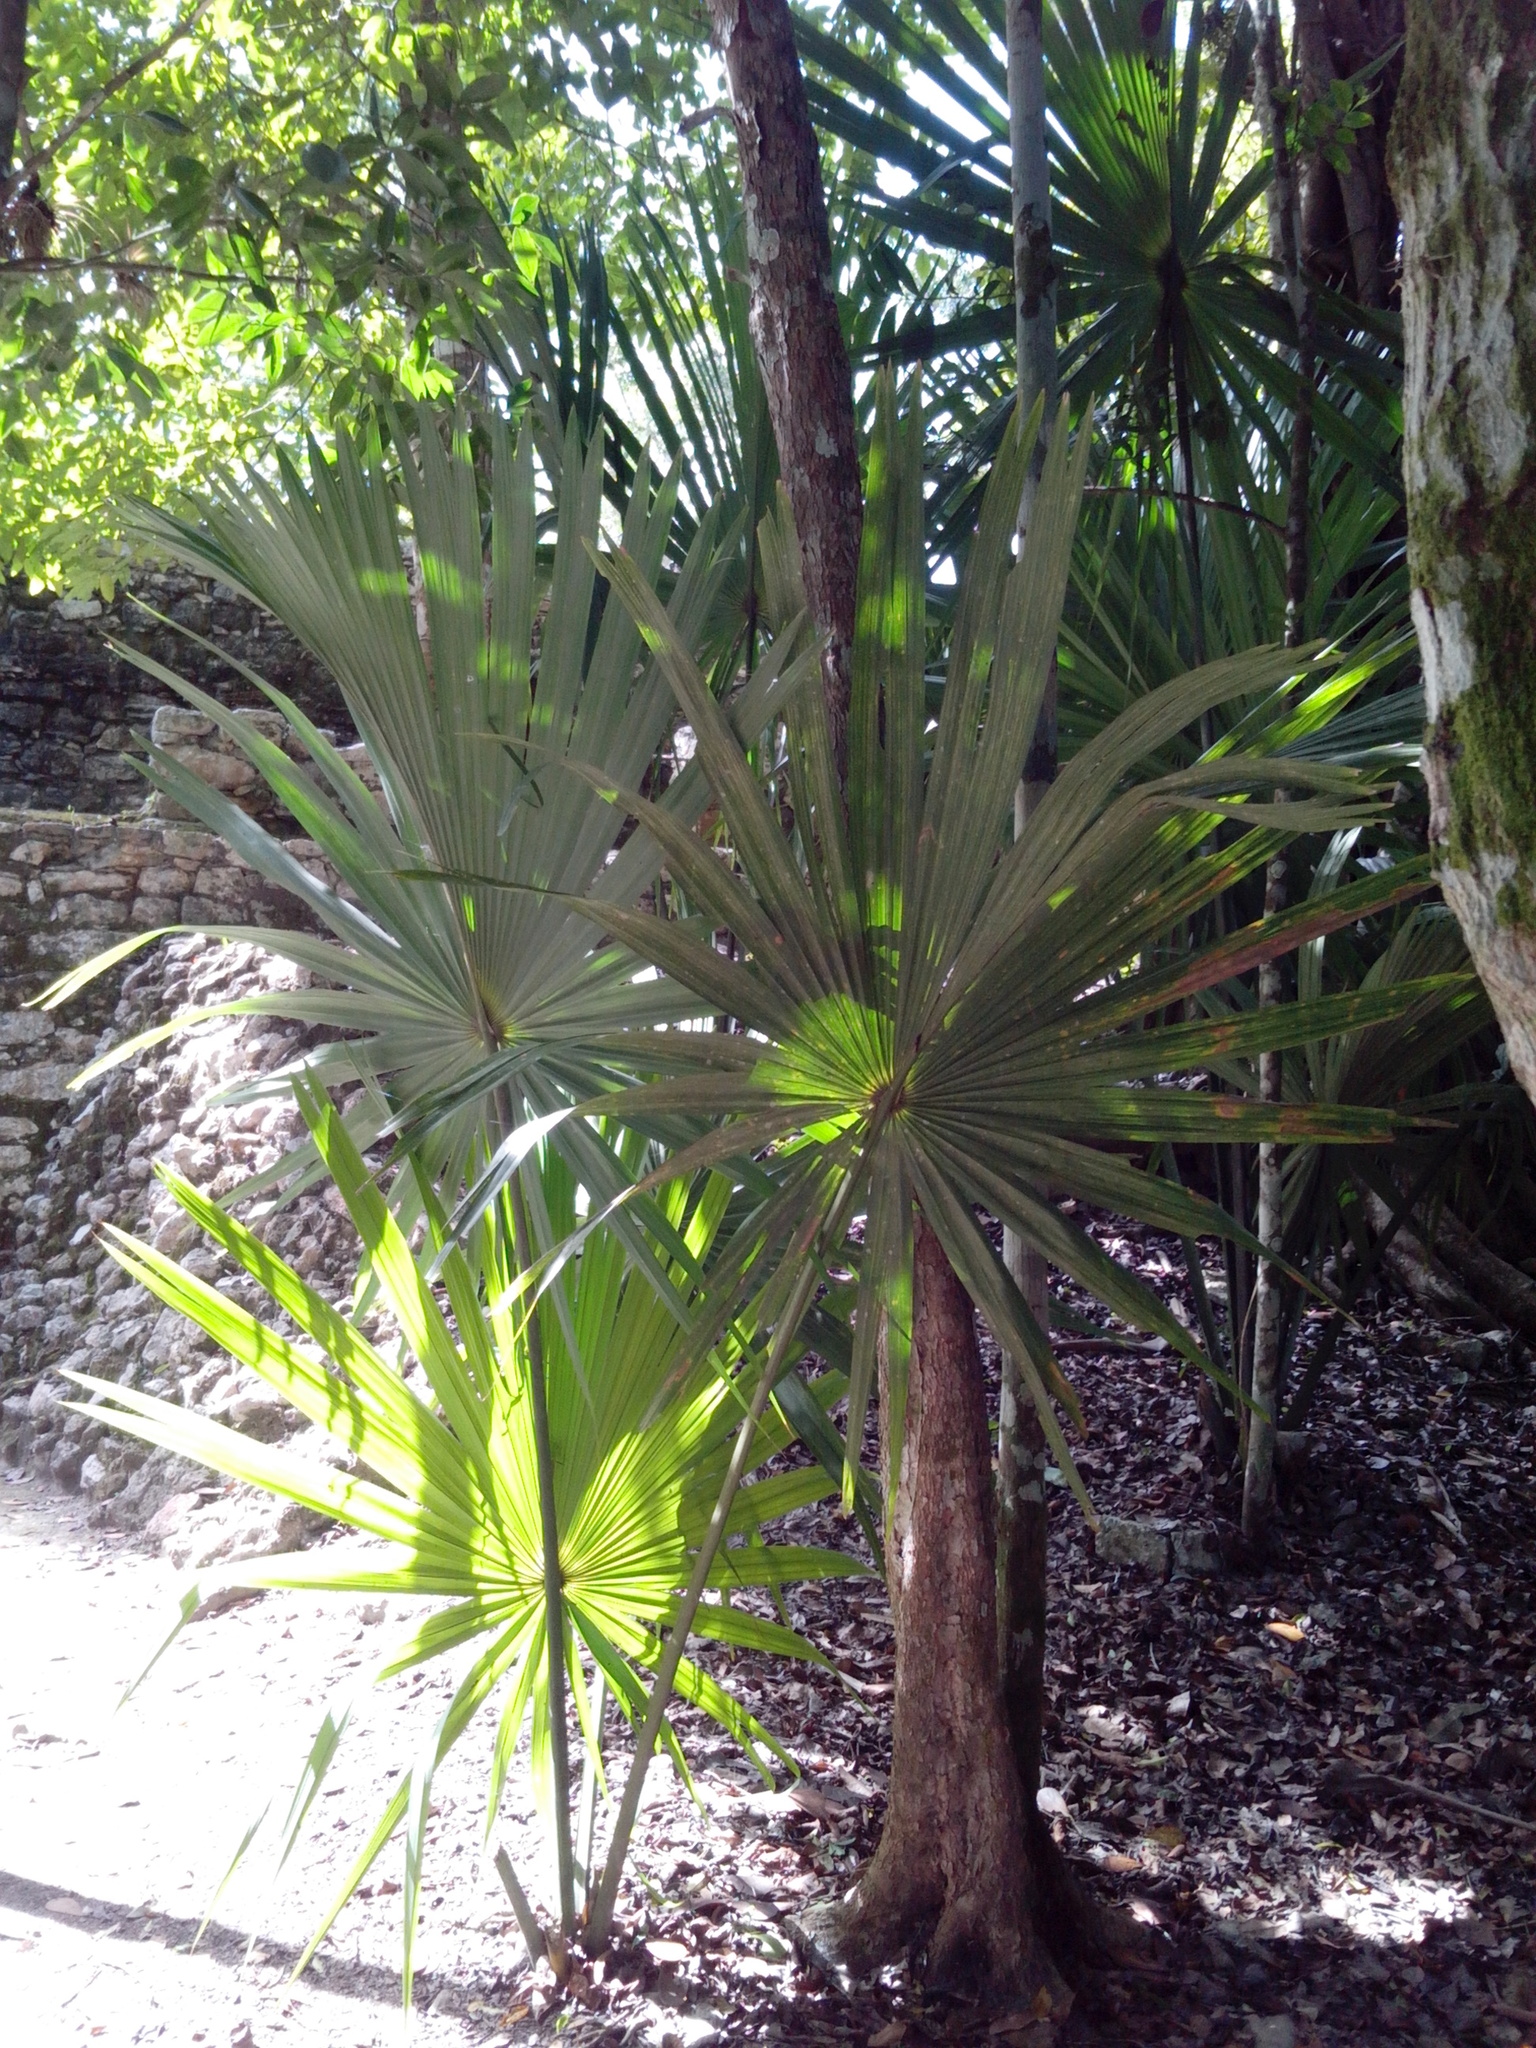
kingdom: Plantae
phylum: Tracheophyta
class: Liliopsida
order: Arecales
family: Arecaceae
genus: Sabal
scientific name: Sabal yapa
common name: Thatch palm
